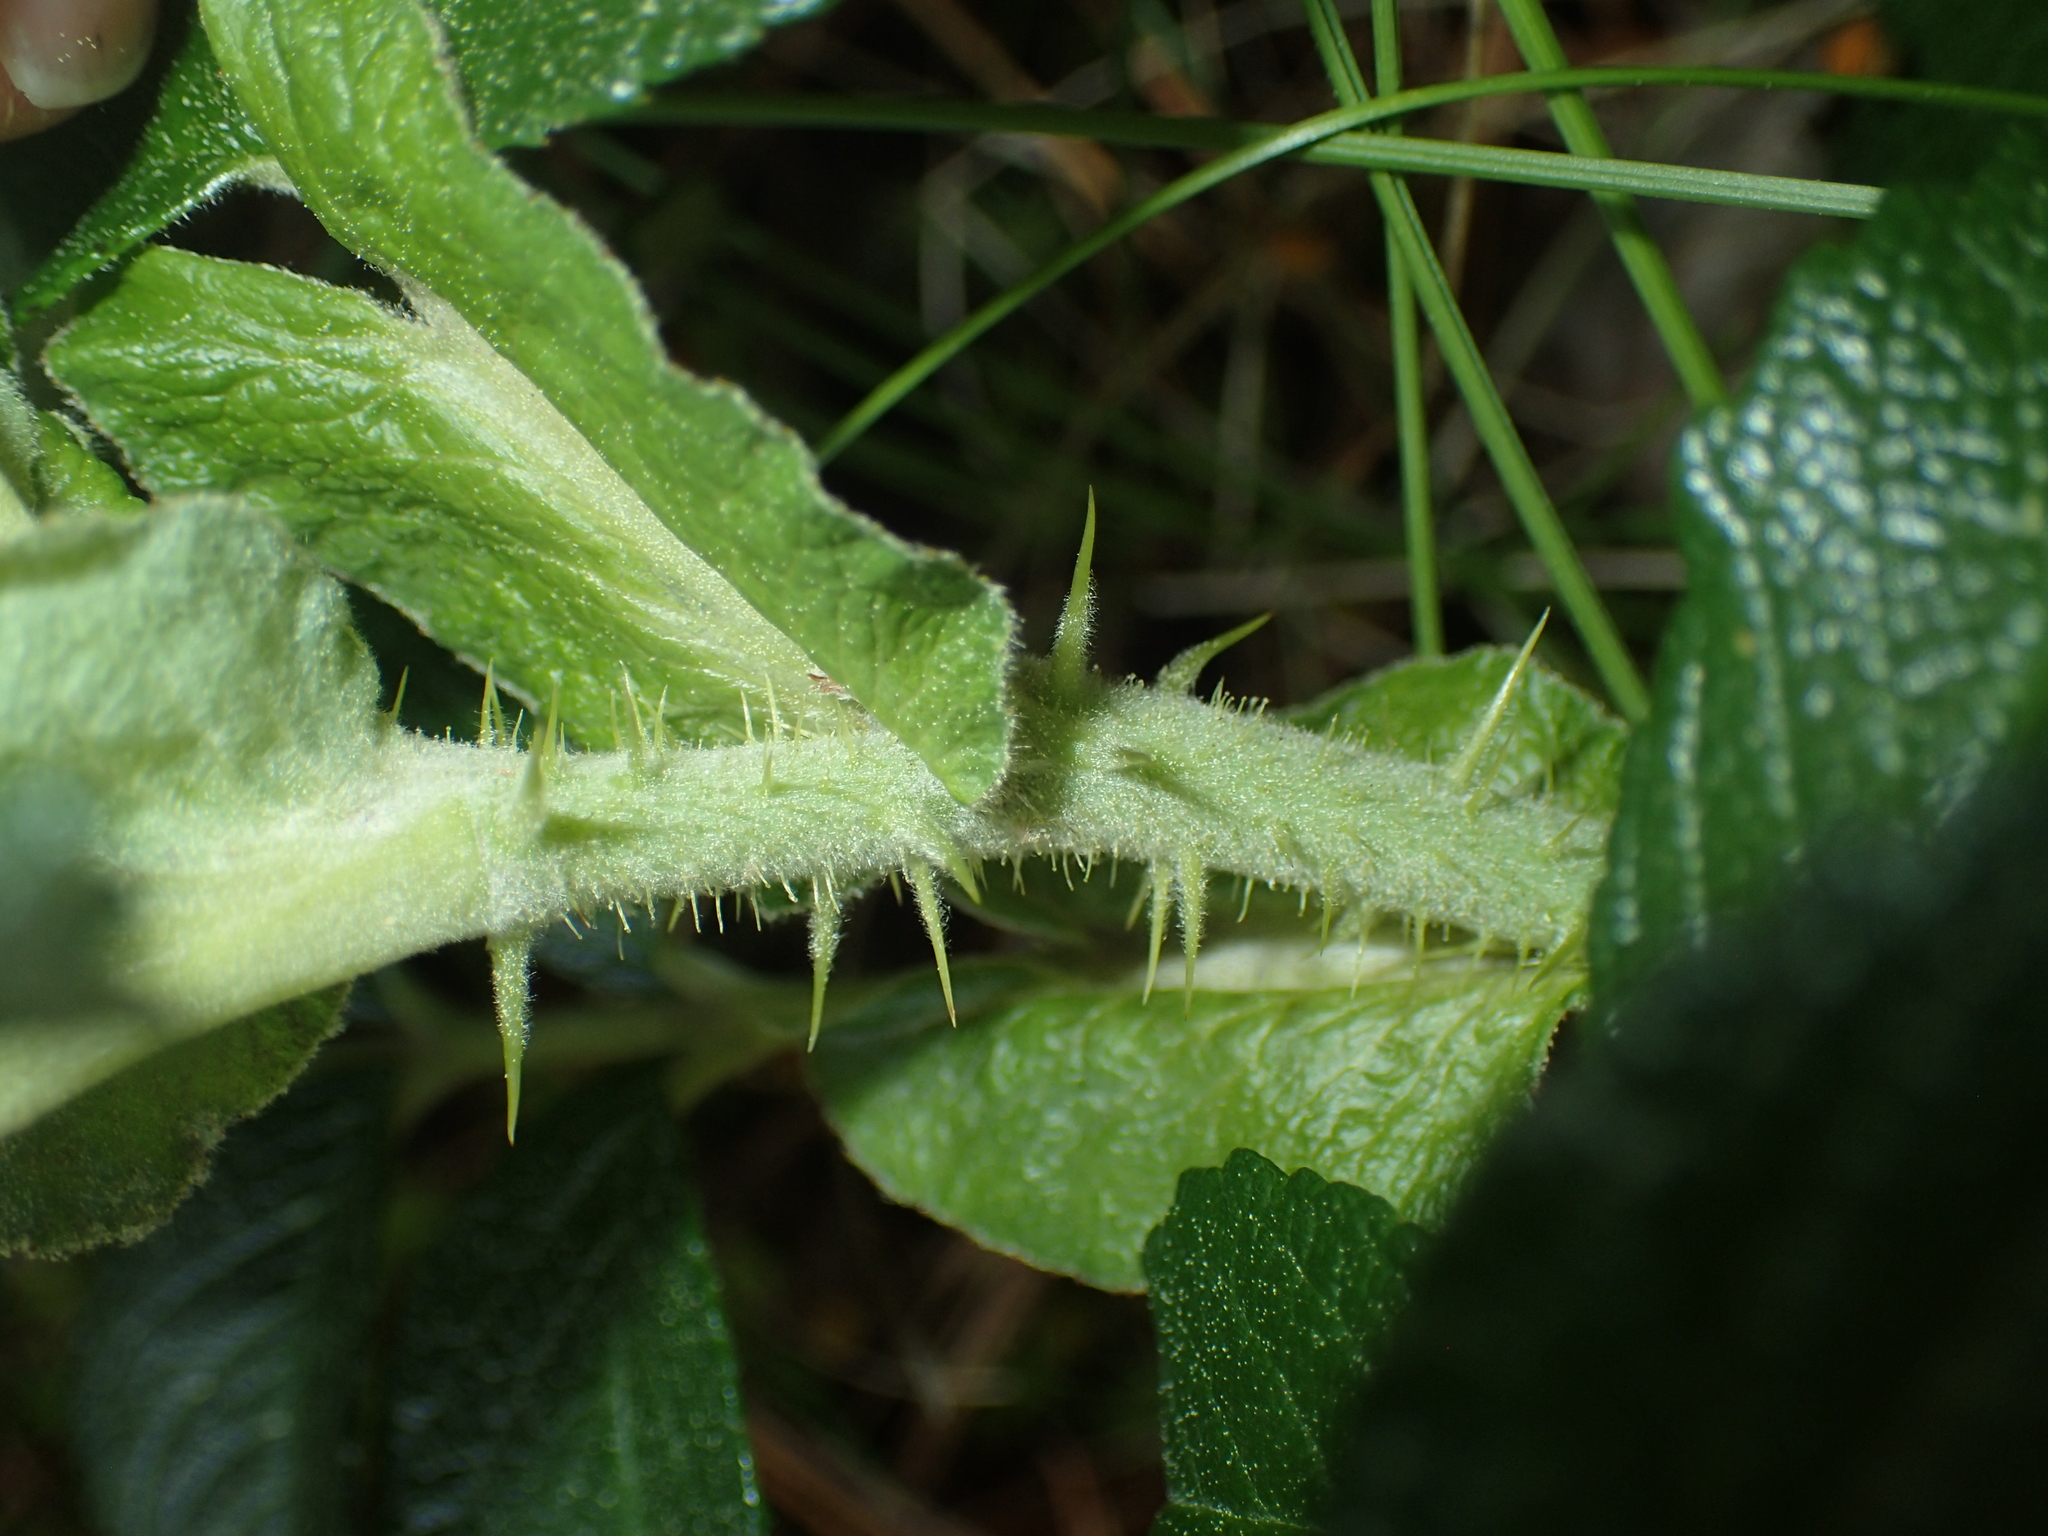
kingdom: Plantae
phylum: Tracheophyta
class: Magnoliopsida
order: Rosales
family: Rosaceae
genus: Rosa
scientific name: Rosa rugosa
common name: Japanese rose
